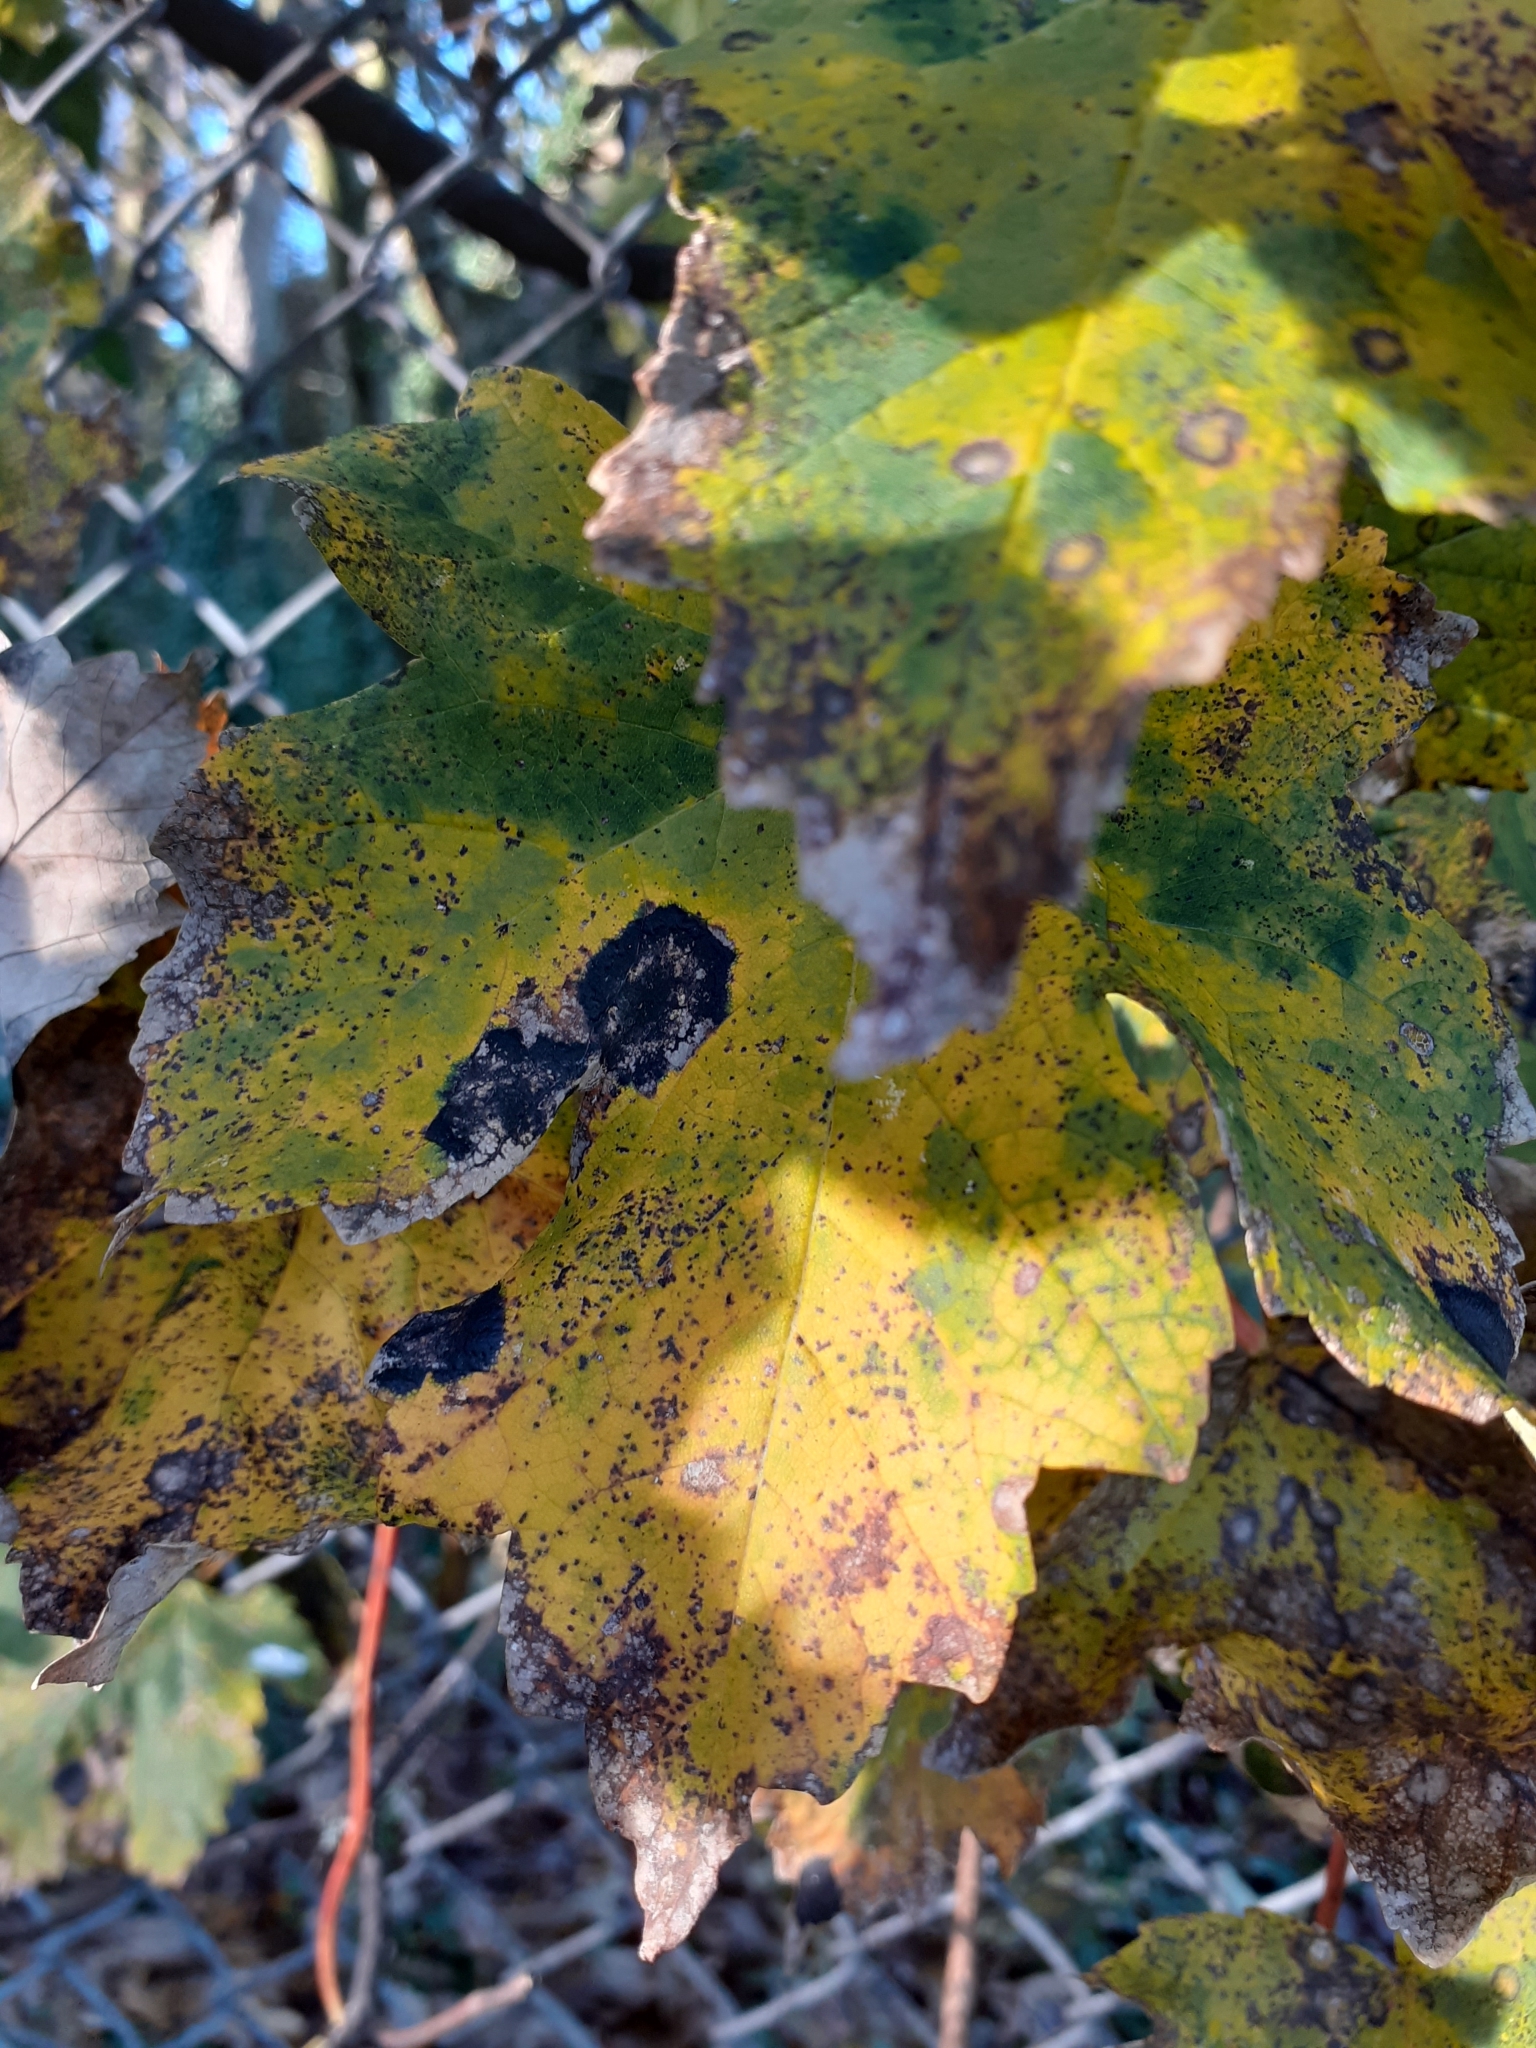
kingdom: Fungi
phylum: Ascomycota
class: Leotiomycetes
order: Rhytismatales
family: Rhytismataceae
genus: Rhytisma
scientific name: Rhytisma acerinum
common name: European tar spot
